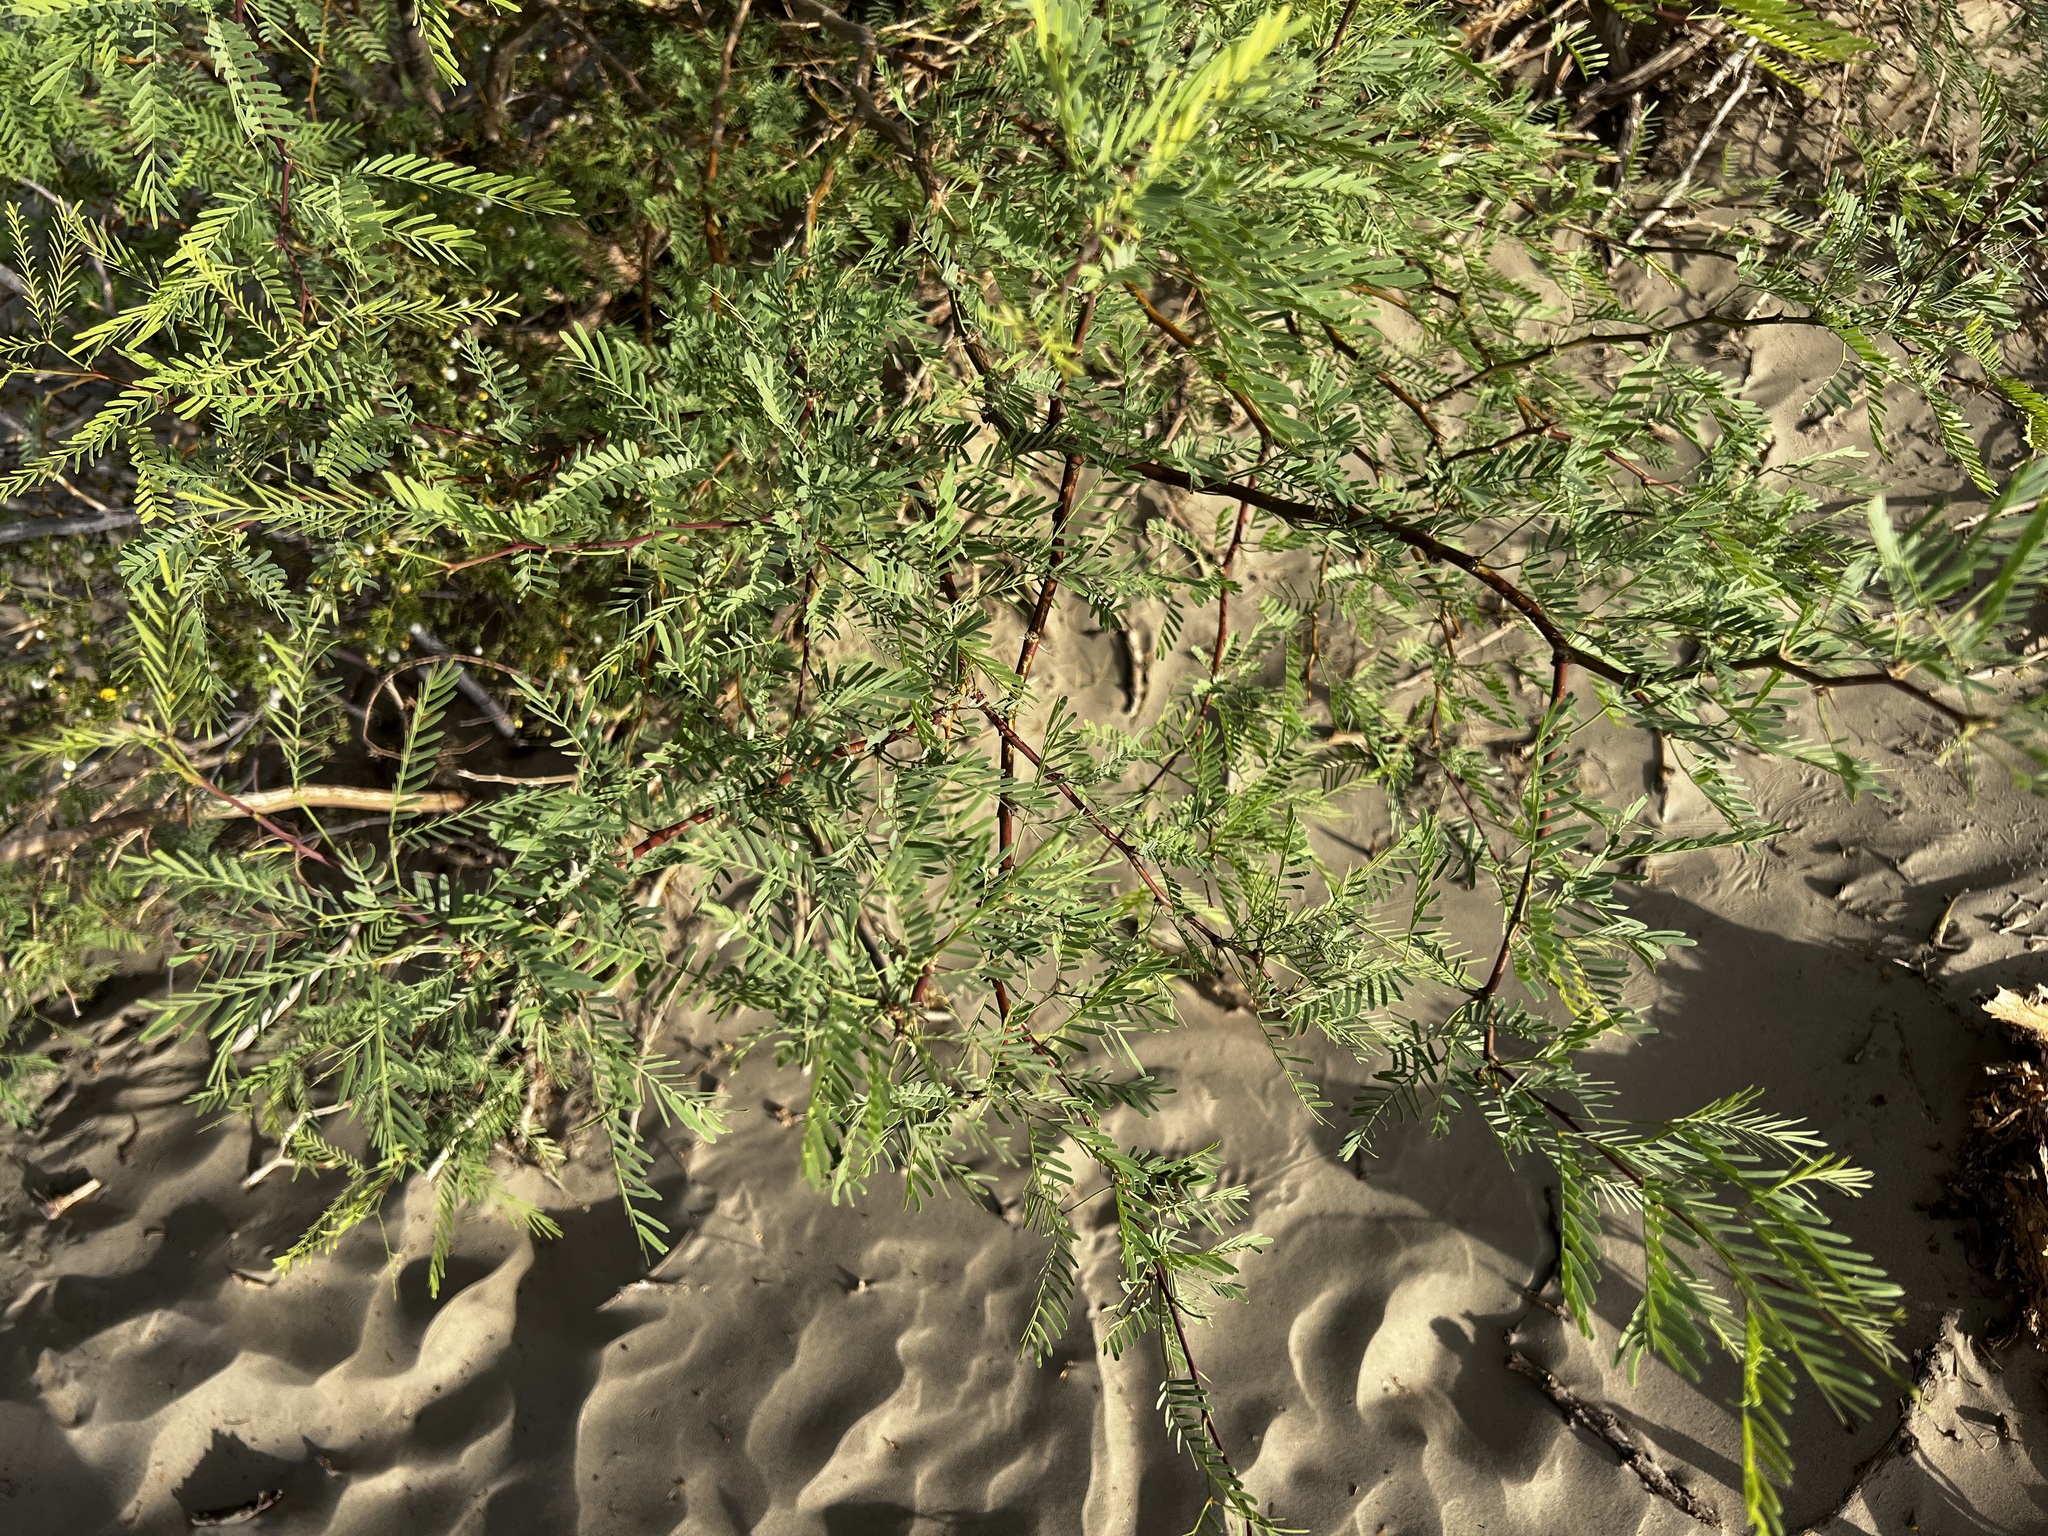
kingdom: Plantae
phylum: Tracheophyta
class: Magnoliopsida
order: Fabales
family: Fabaceae
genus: Prosopis
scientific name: Prosopis pubescens
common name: Screw-bean
